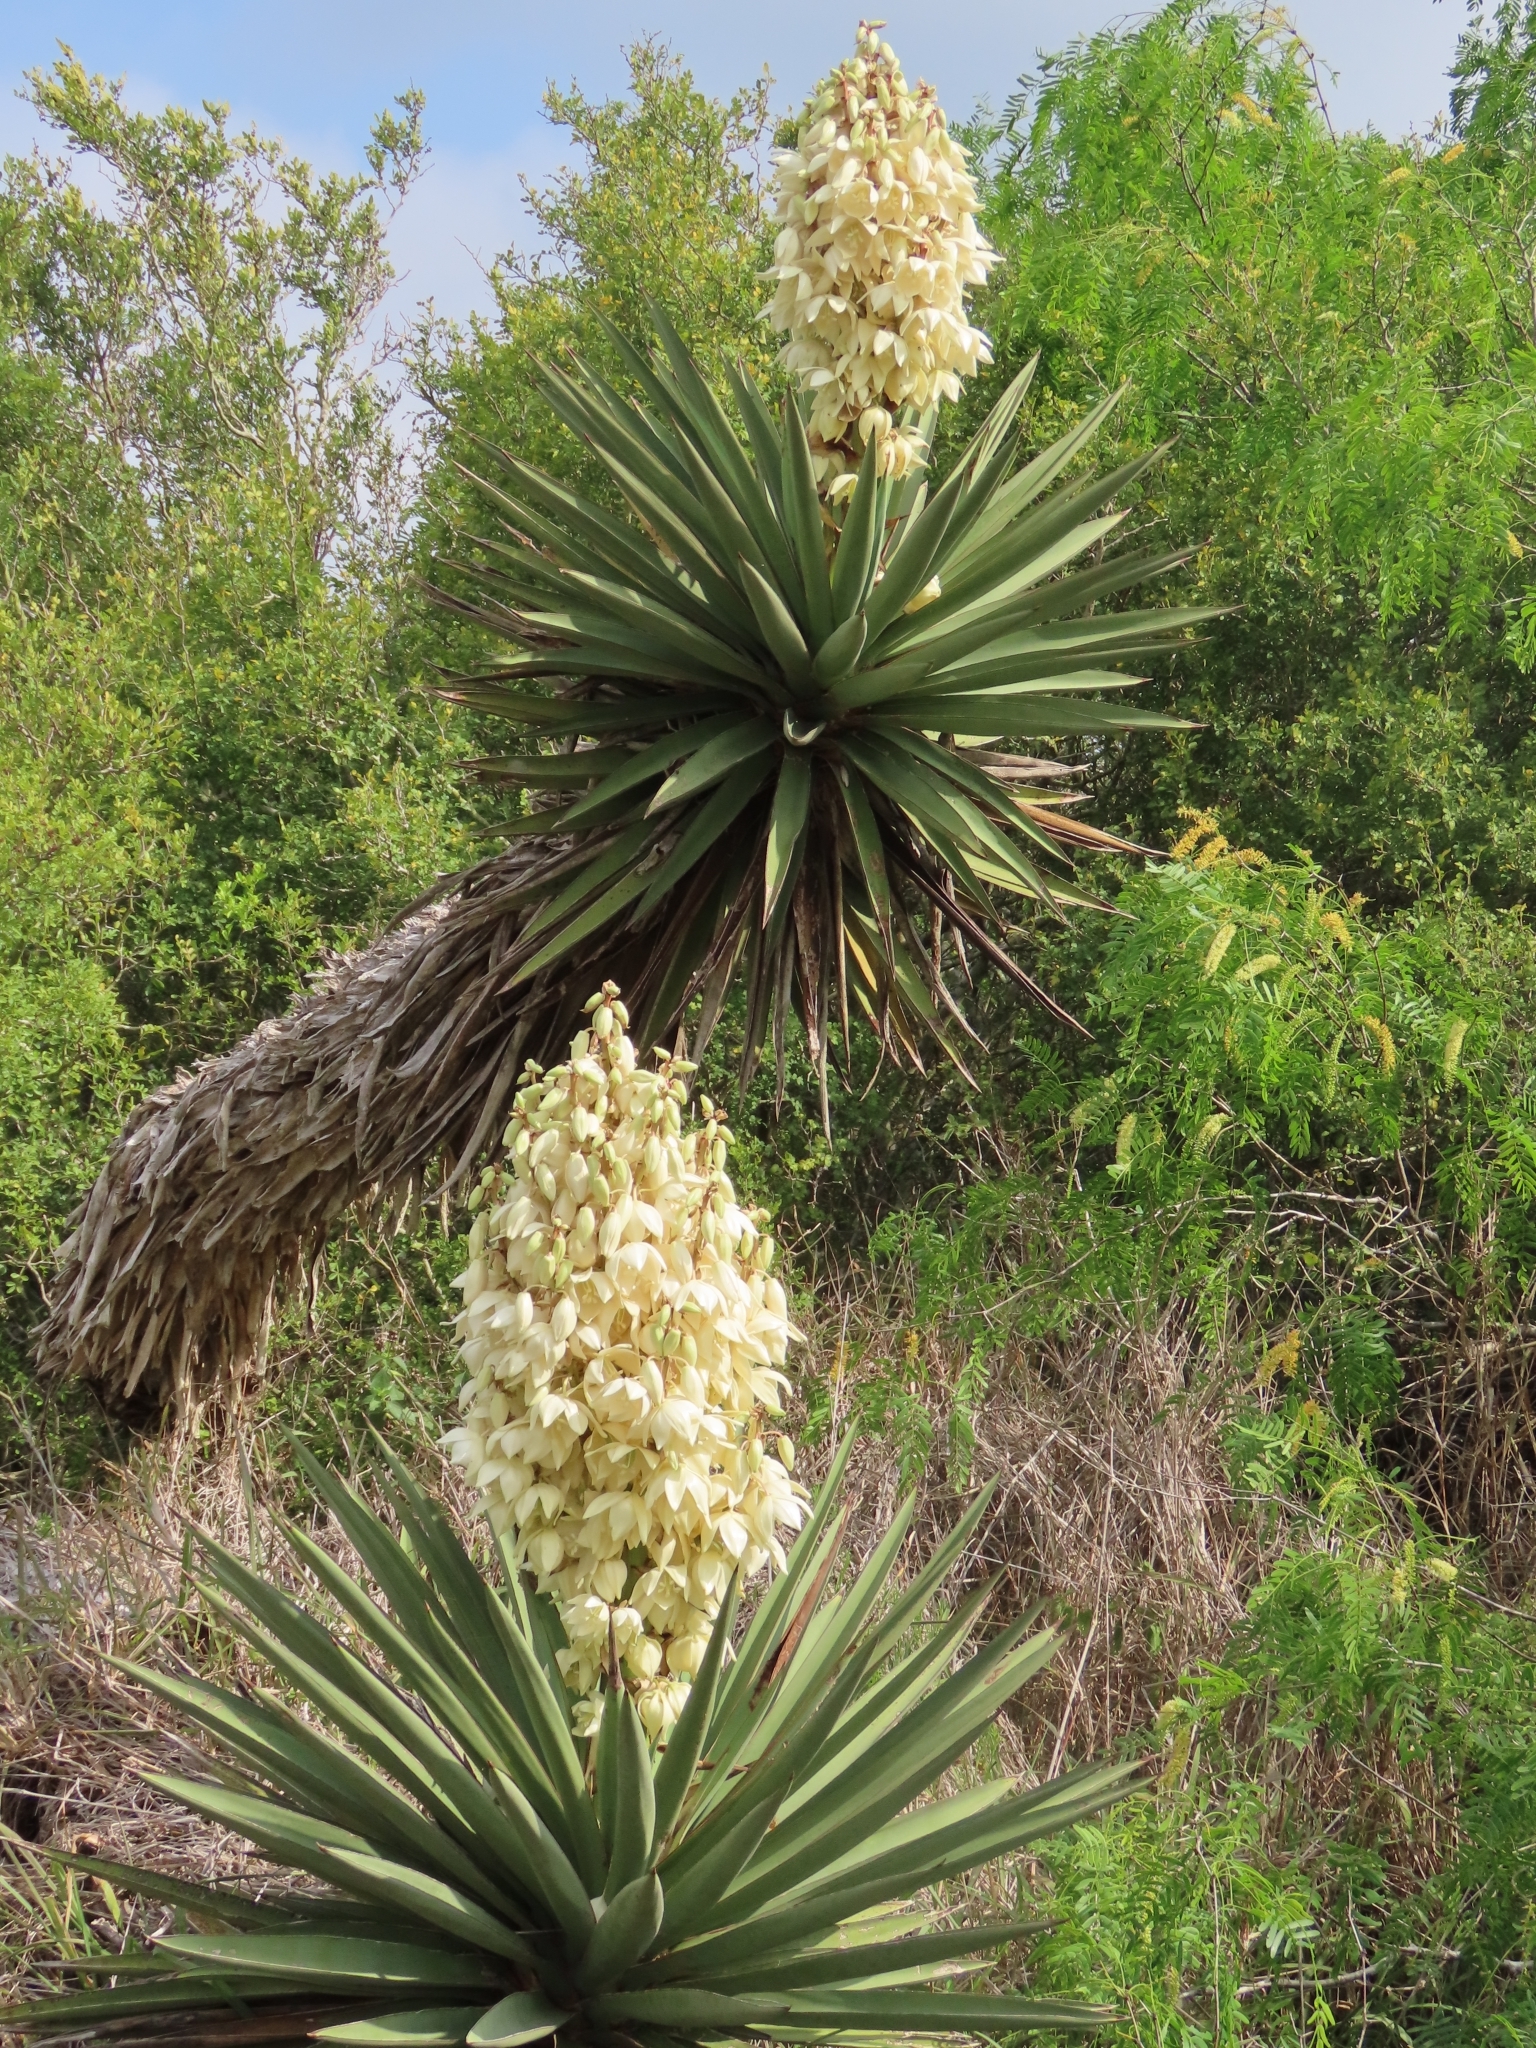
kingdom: Plantae
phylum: Tracheophyta
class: Liliopsida
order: Asparagales
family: Asparagaceae
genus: Yucca
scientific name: Yucca treculiana
